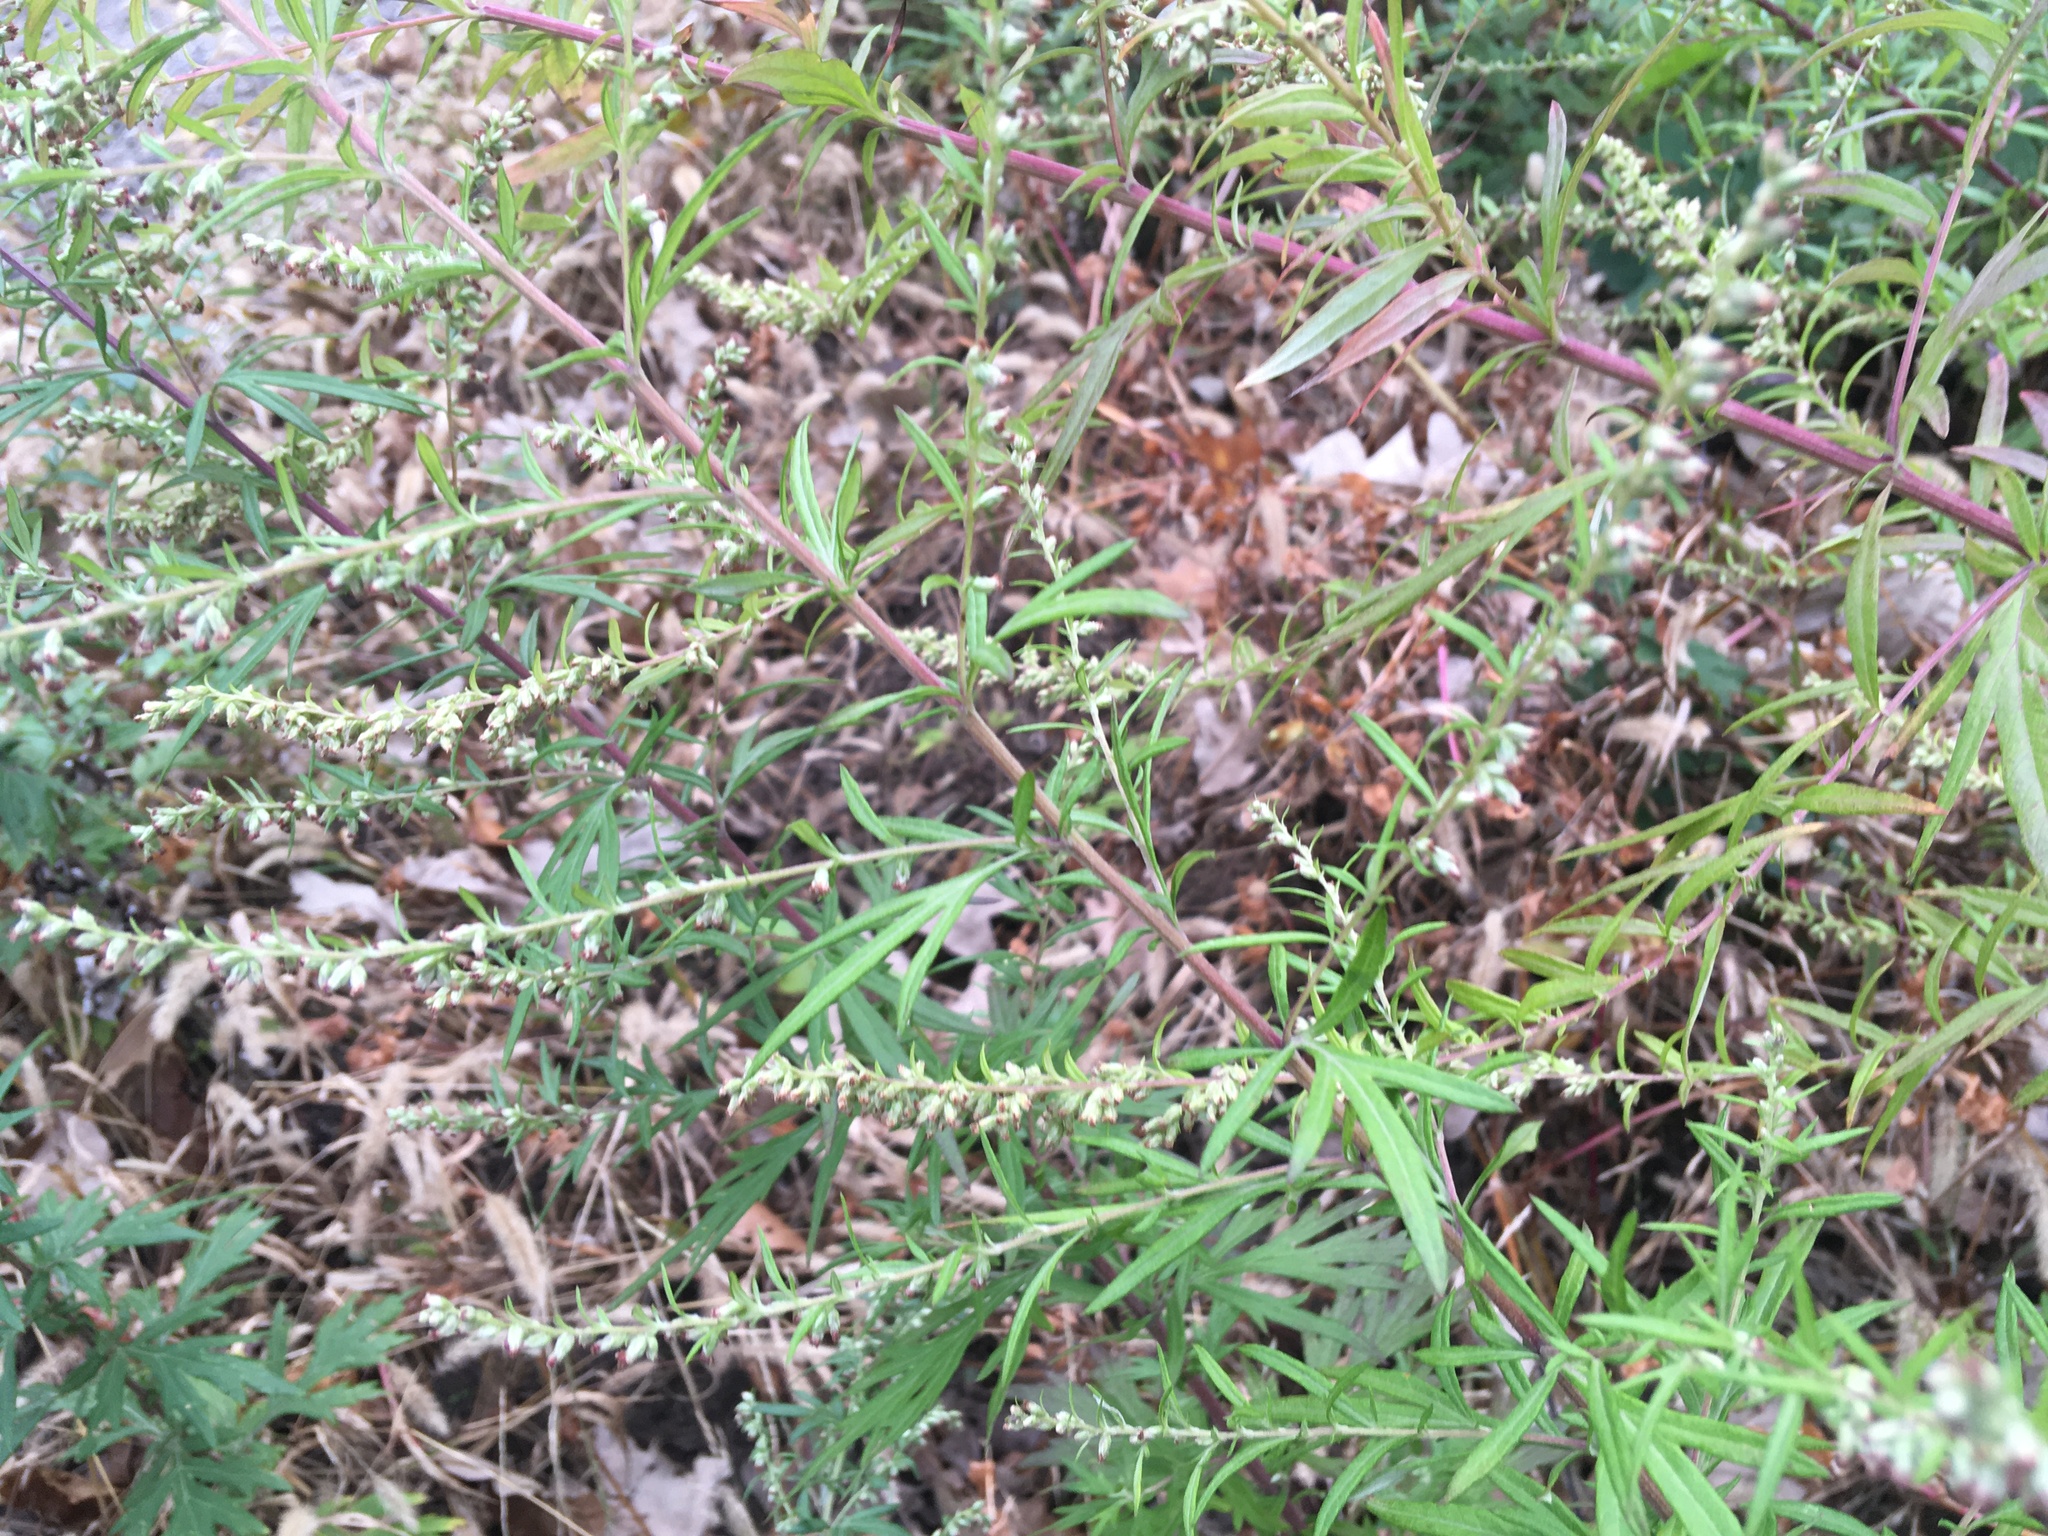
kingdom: Plantae
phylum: Tracheophyta
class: Magnoliopsida
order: Asterales
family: Asteraceae
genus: Artemisia
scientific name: Artemisia vulgaris
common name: Mugwort
